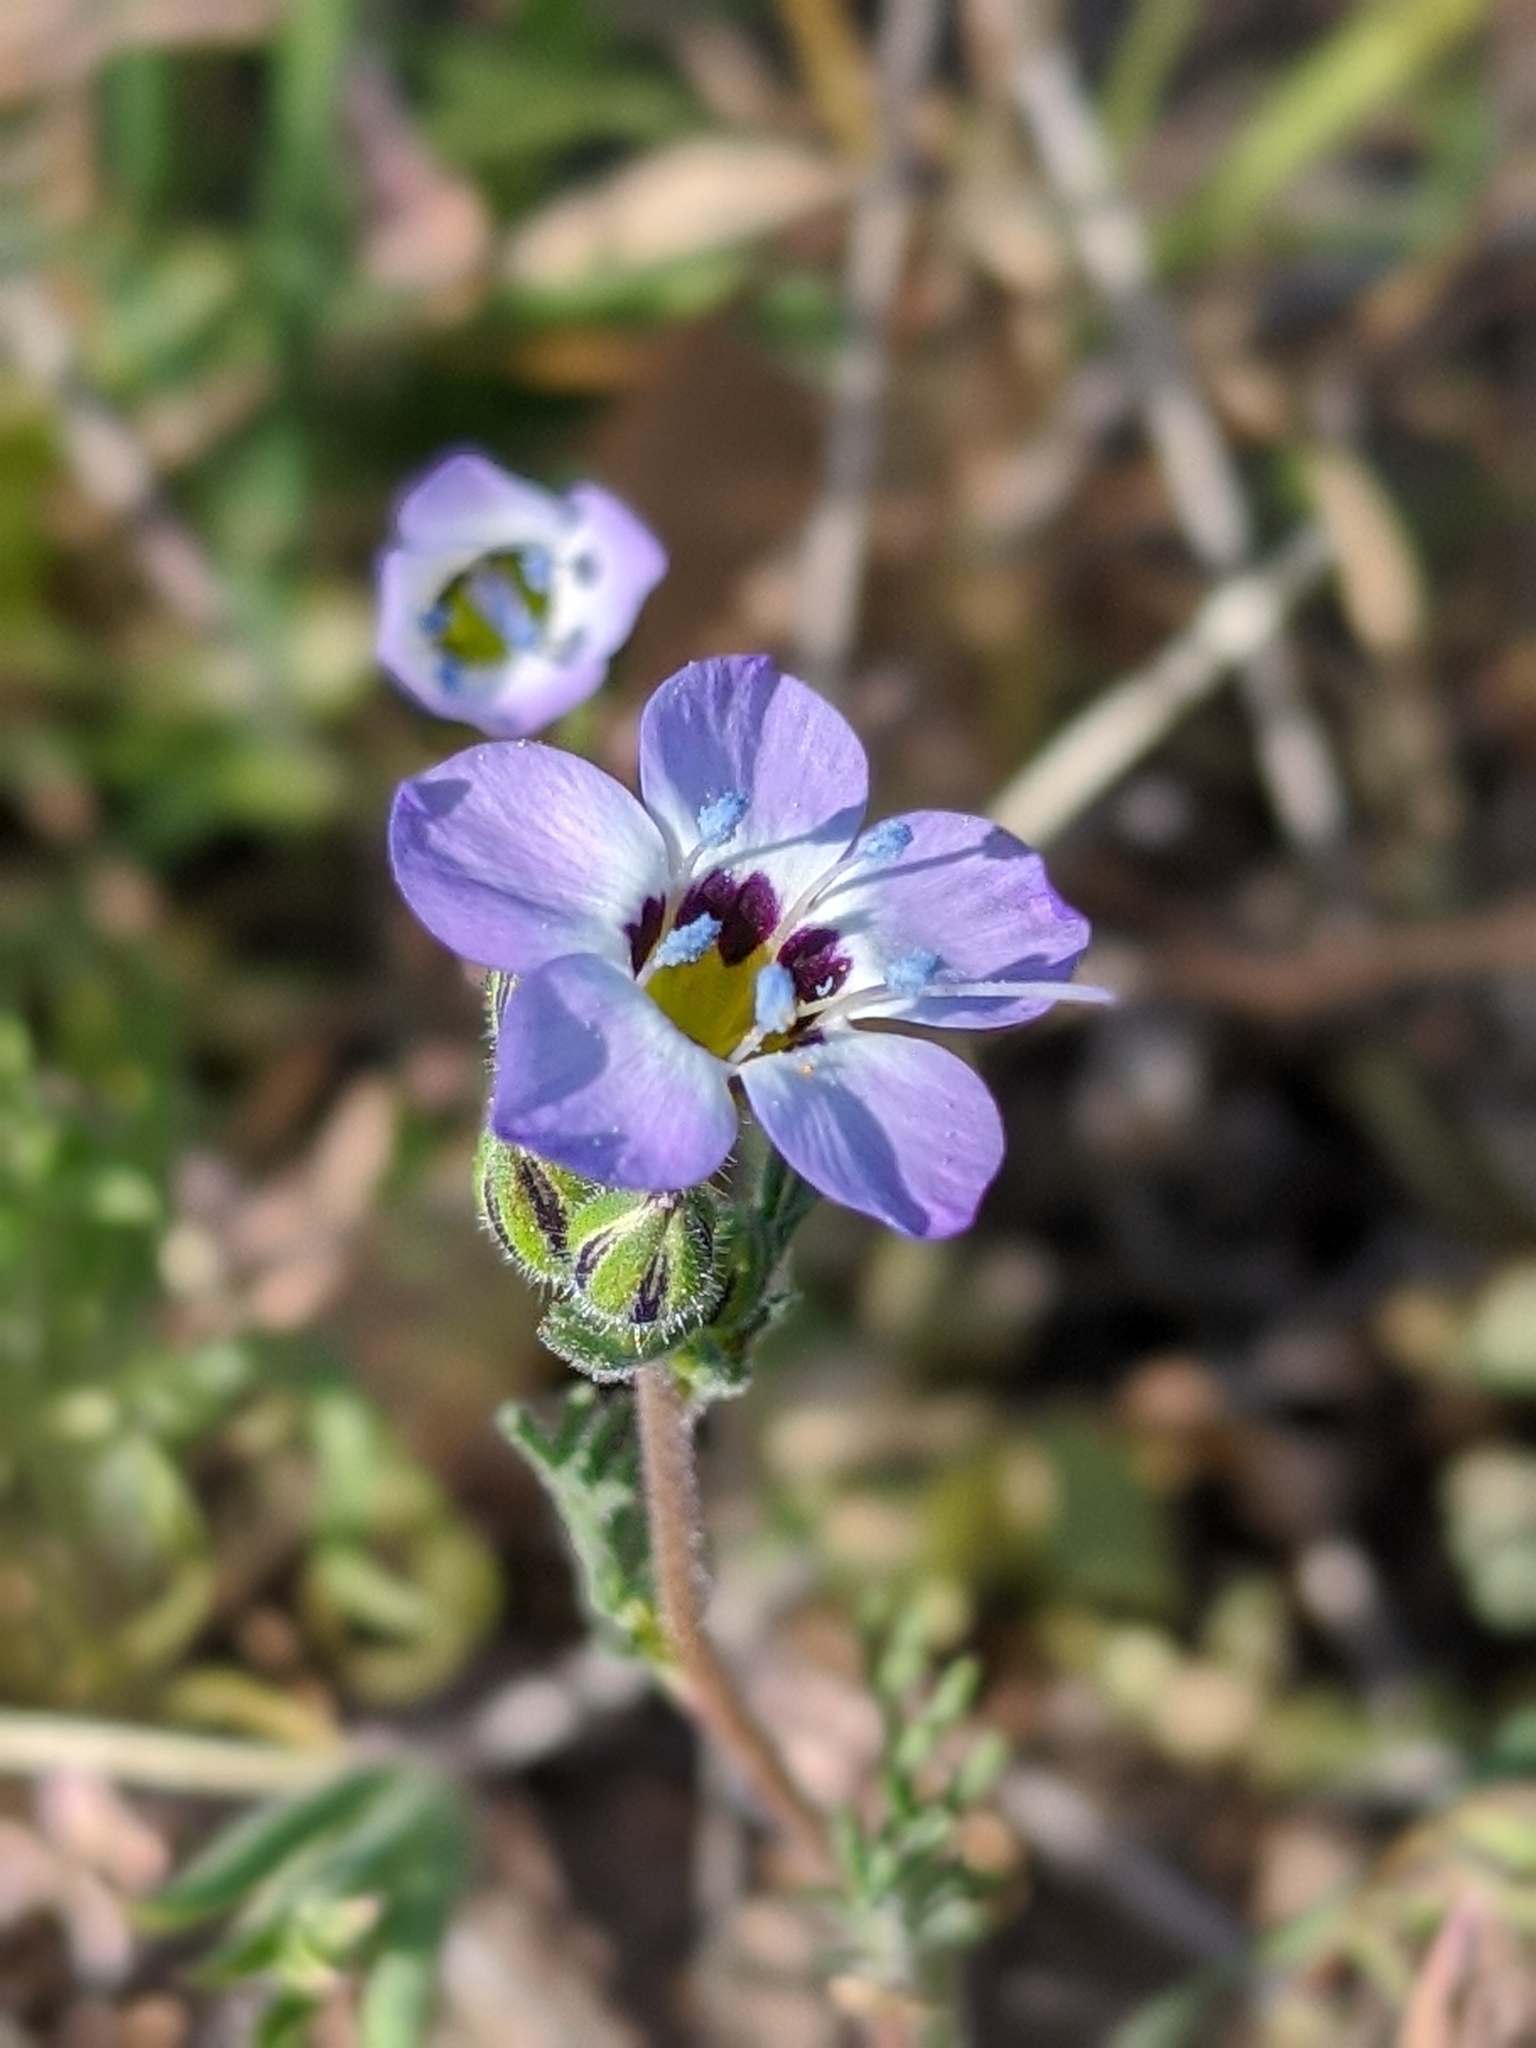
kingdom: Plantae
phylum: Tracheophyta
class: Magnoliopsida
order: Ericales
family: Polemoniaceae
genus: Gilia
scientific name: Gilia tricolor
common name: Bird's-eyes
